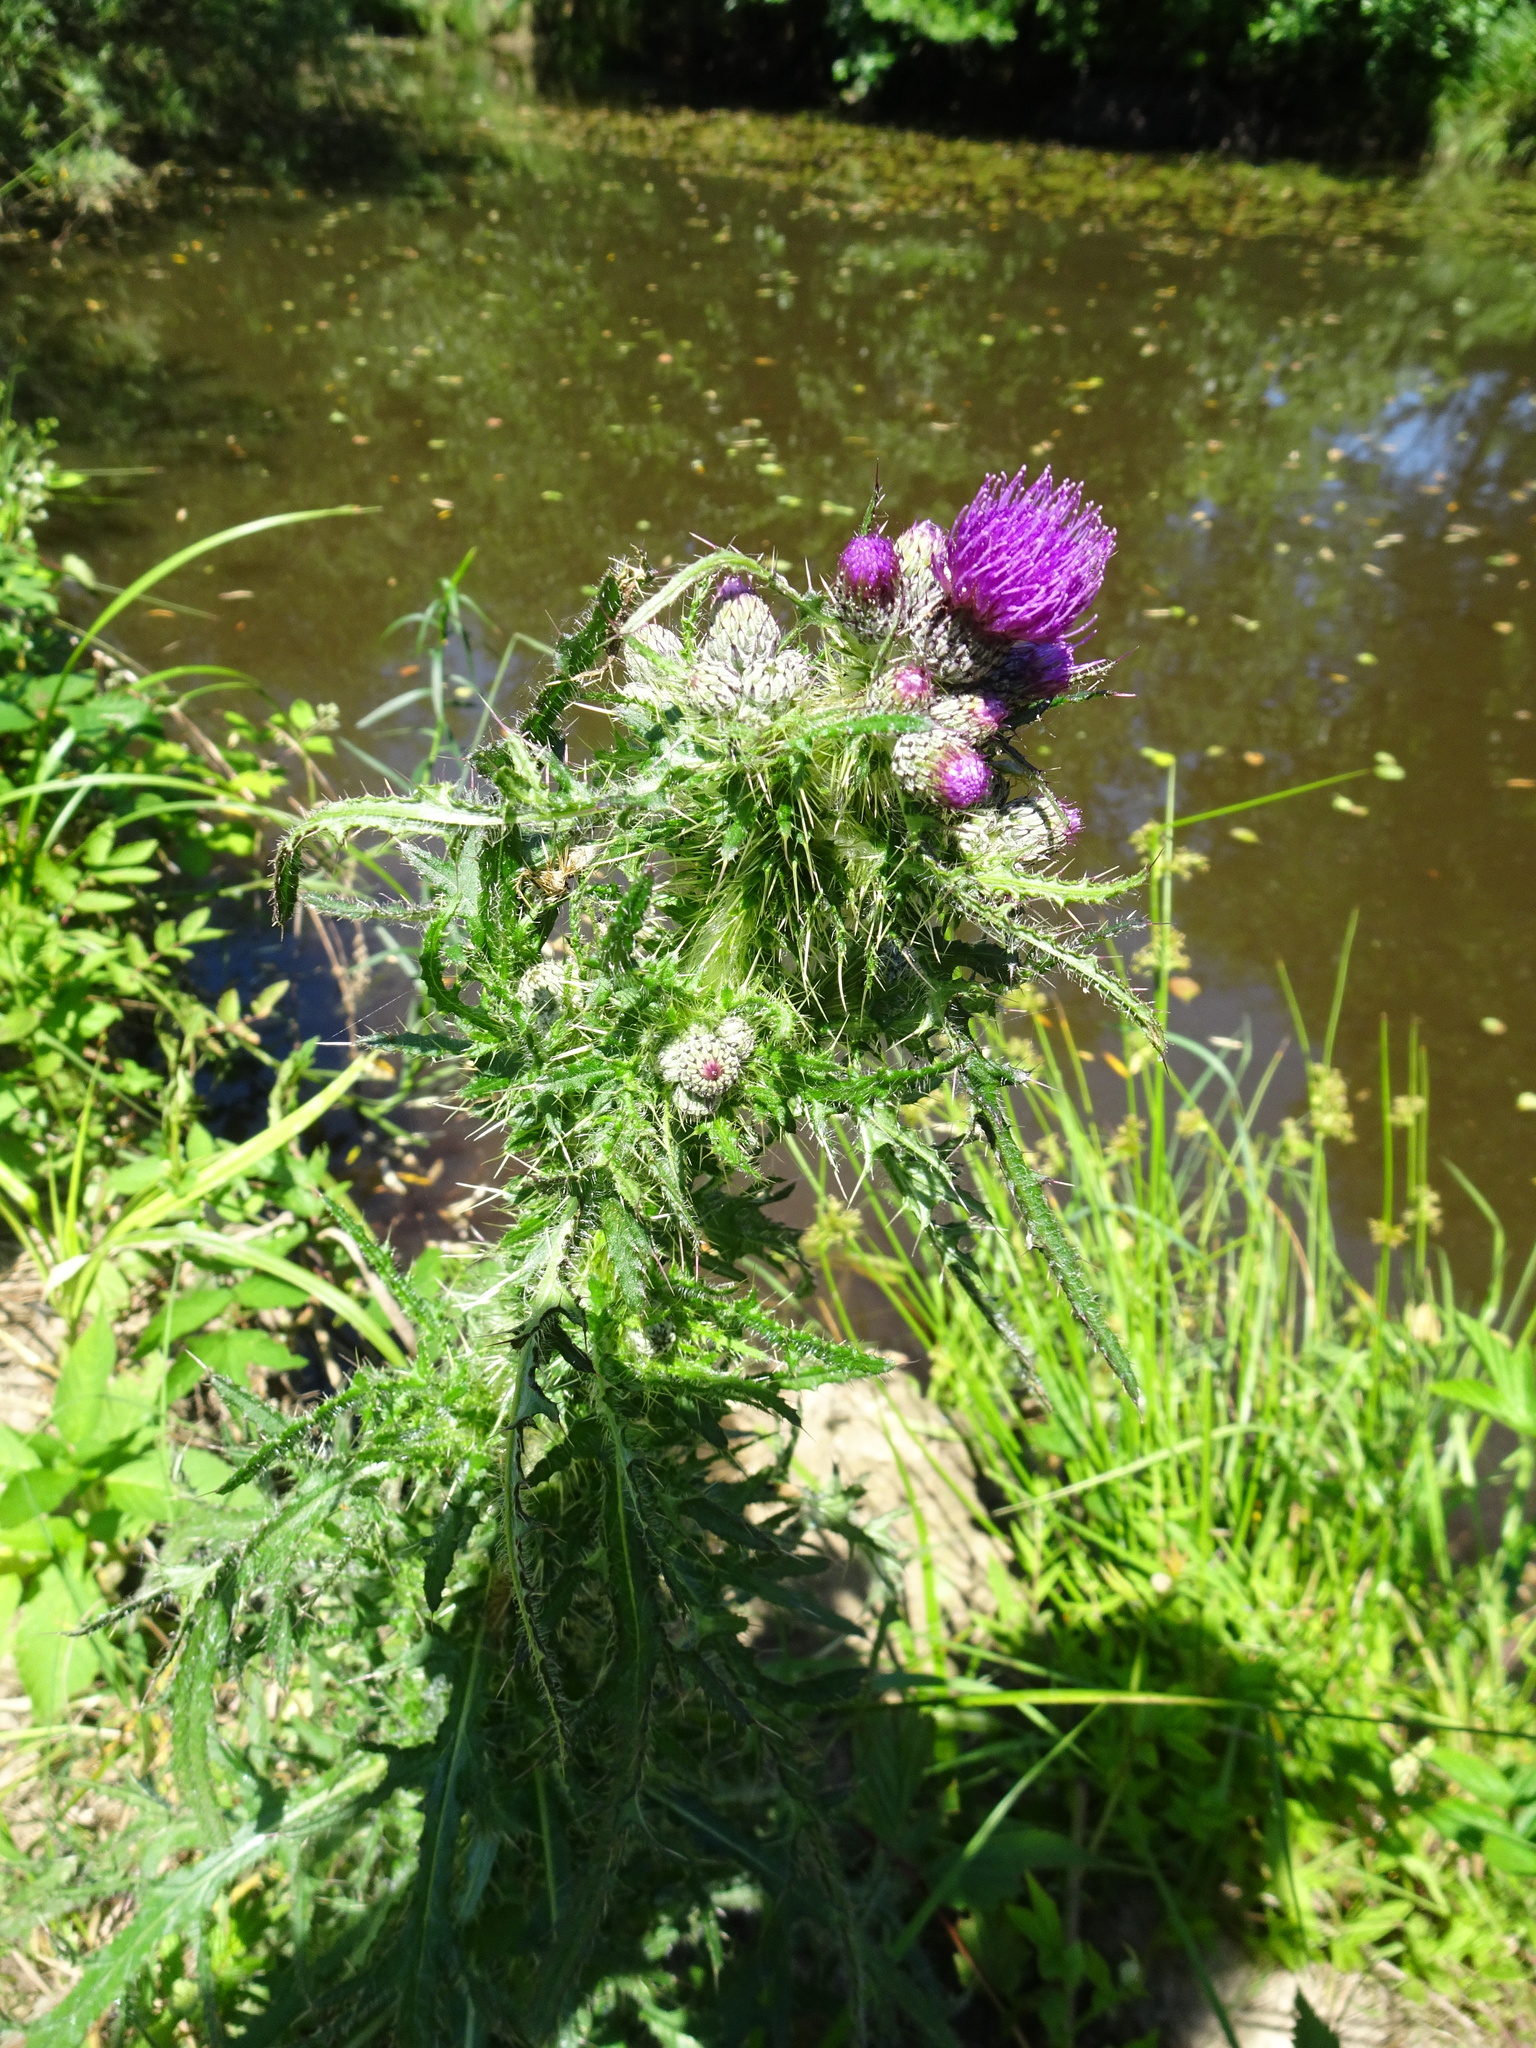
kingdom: Plantae
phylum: Tracheophyta
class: Magnoliopsida
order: Asterales
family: Asteraceae
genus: Cirsium
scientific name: Cirsium palustre
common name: Marsh thistle
